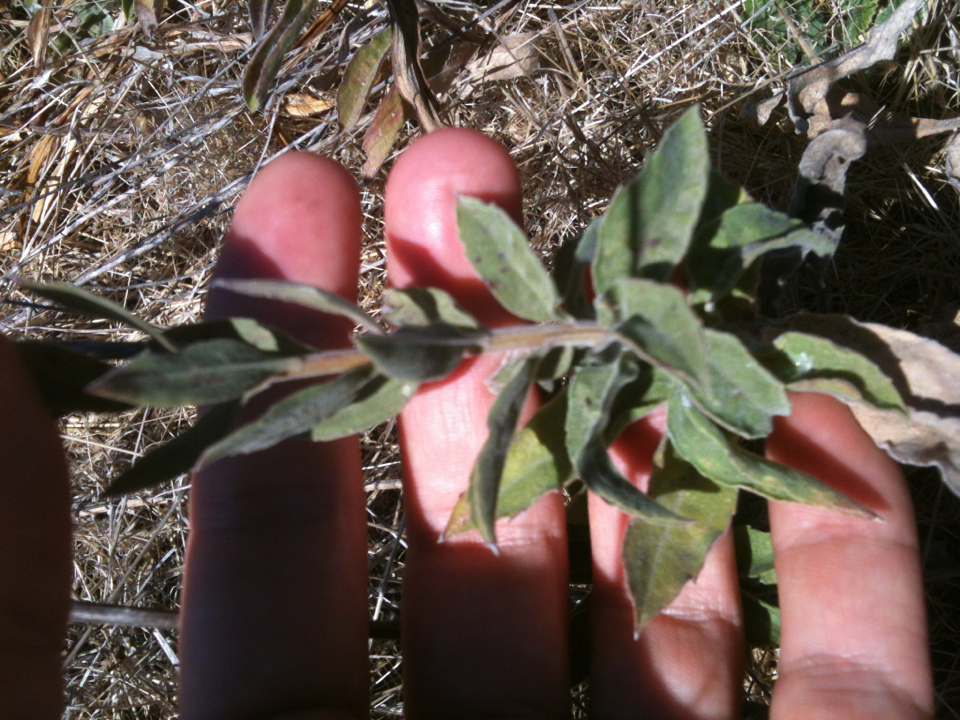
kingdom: Plantae
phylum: Tracheophyta
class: Magnoliopsida
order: Asterales
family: Asteraceae
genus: Solidago
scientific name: Solidago velutina
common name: Three-nerve goldenrod
